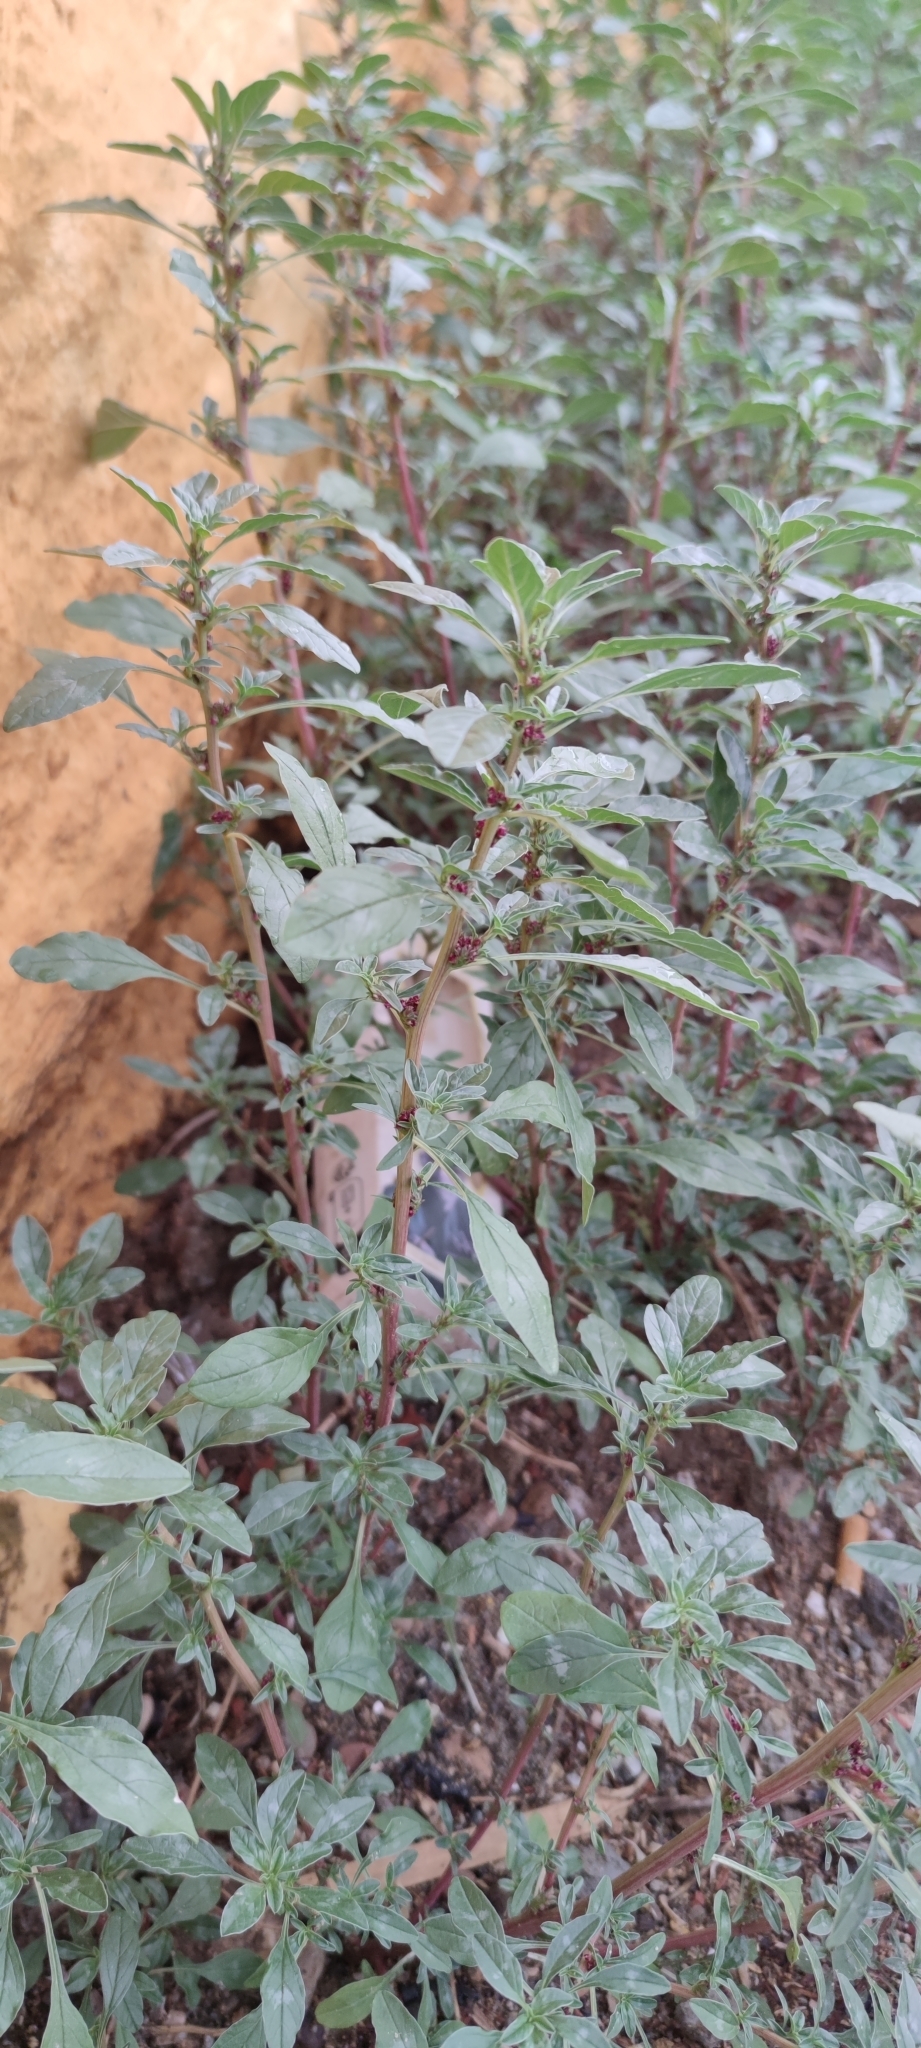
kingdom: Plantae
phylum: Tracheophyta
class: Magnoliopsida
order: Caryophyllales
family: Amaranthaceae
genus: Amaranthus
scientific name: Amaranthus blitoides
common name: Prostrate pigweed
